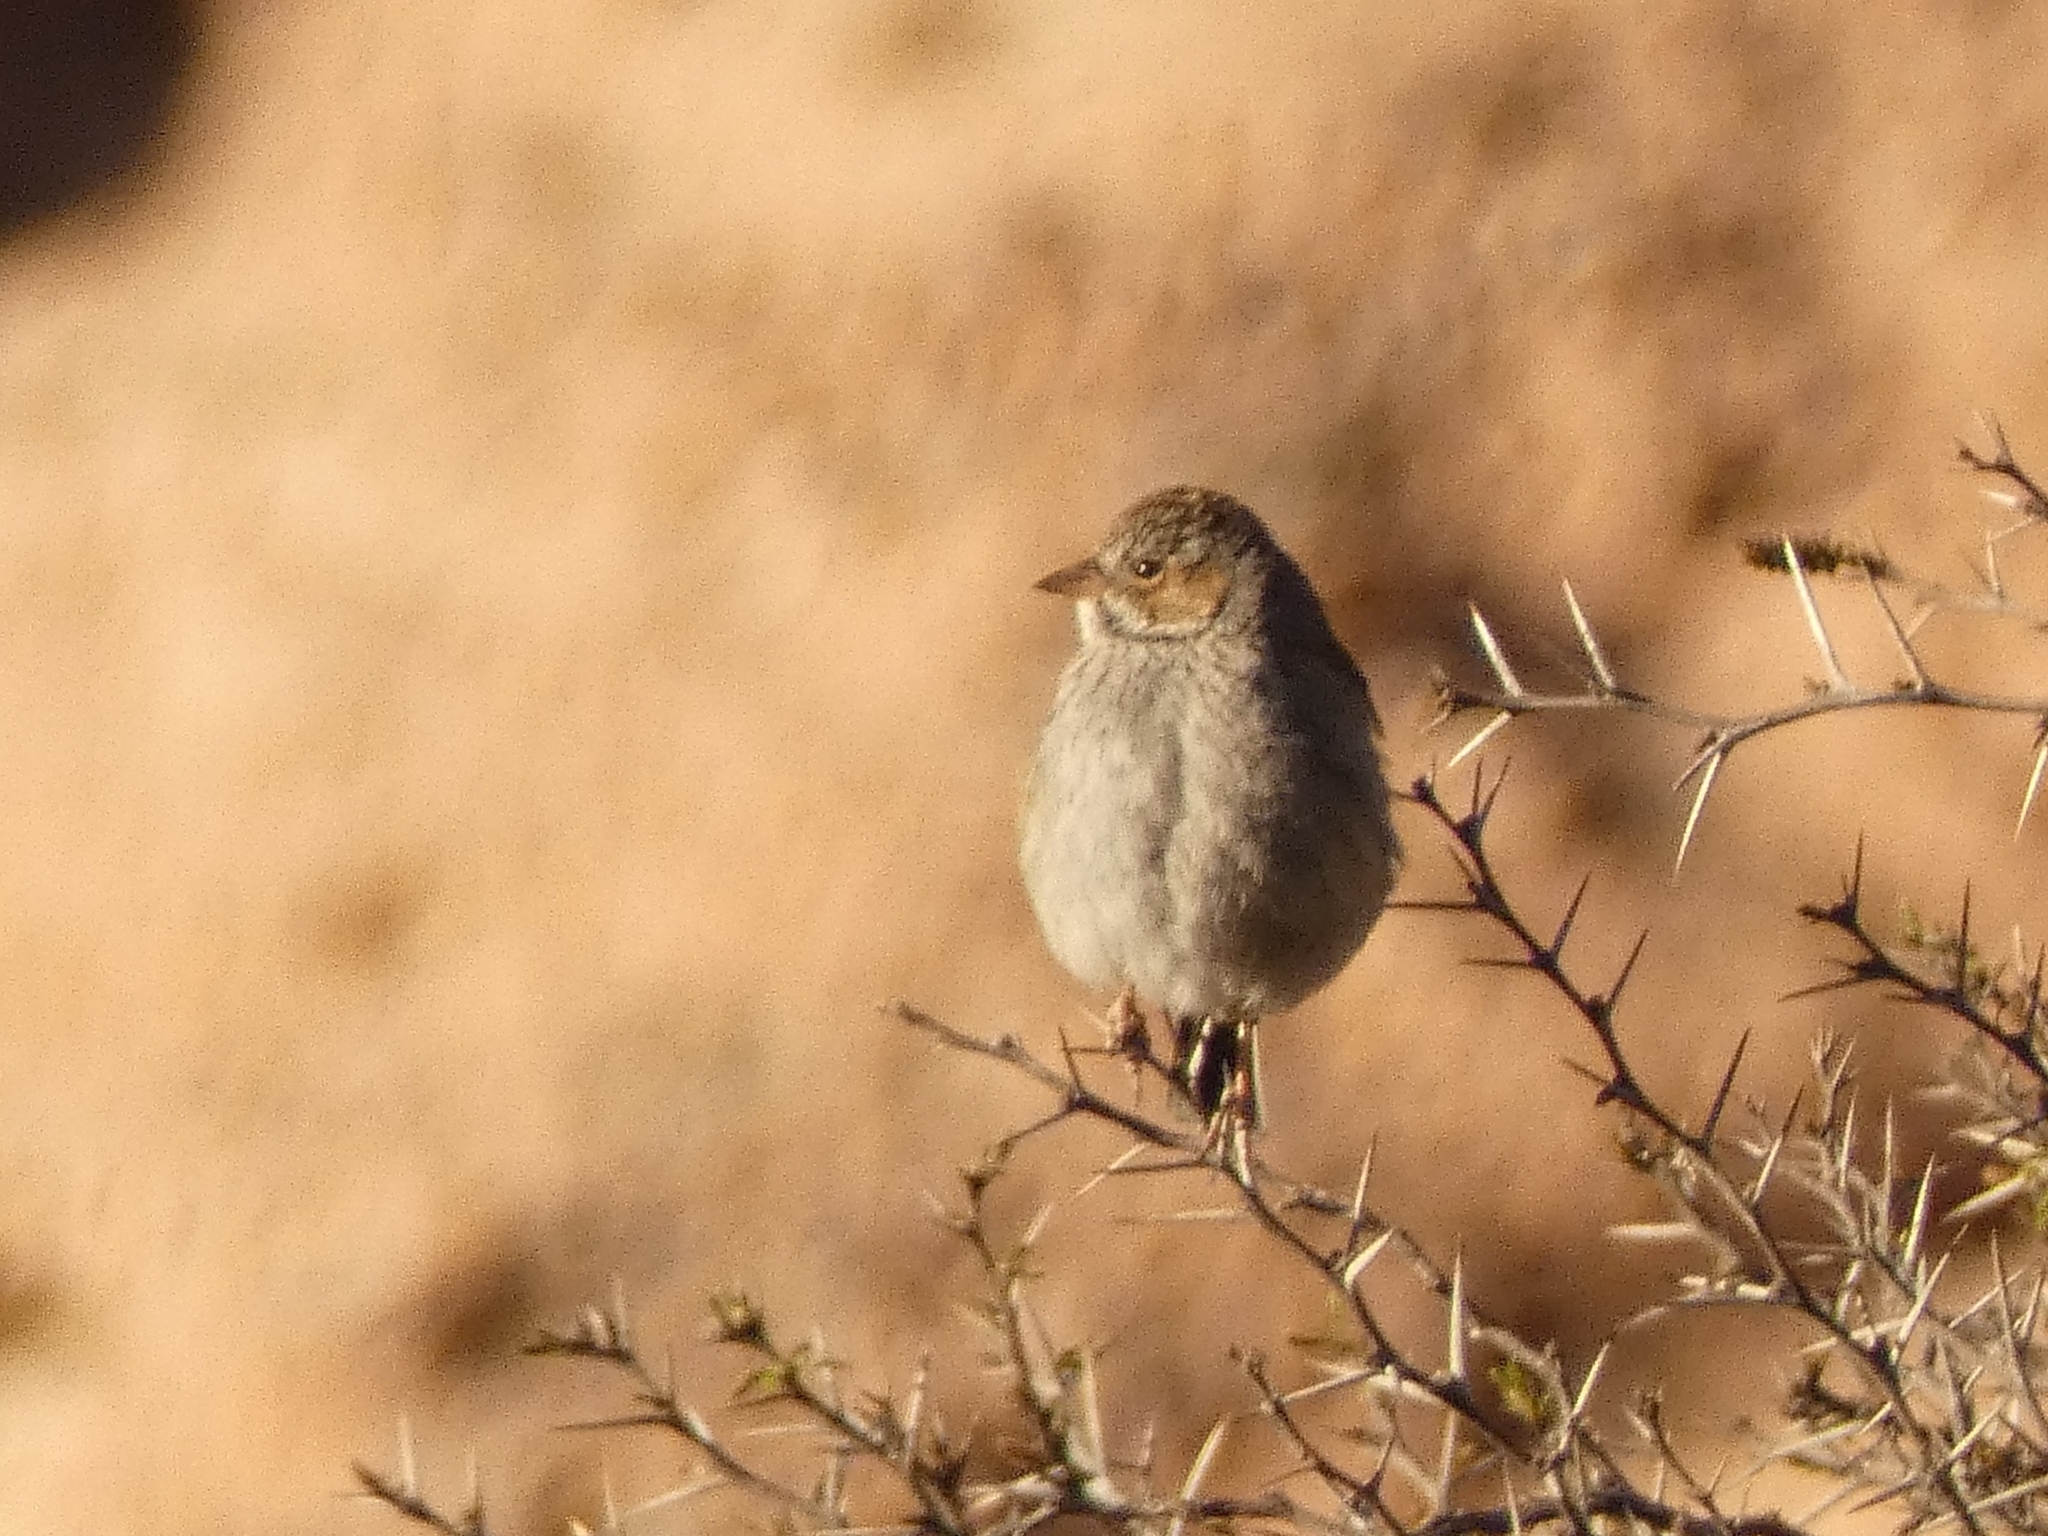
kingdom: Animalia
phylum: Chordata
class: Aves
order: Passeriformes
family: Thraupidae
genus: Rhopospina
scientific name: Rhopospina fruticeti
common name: Mourning sierra finch
